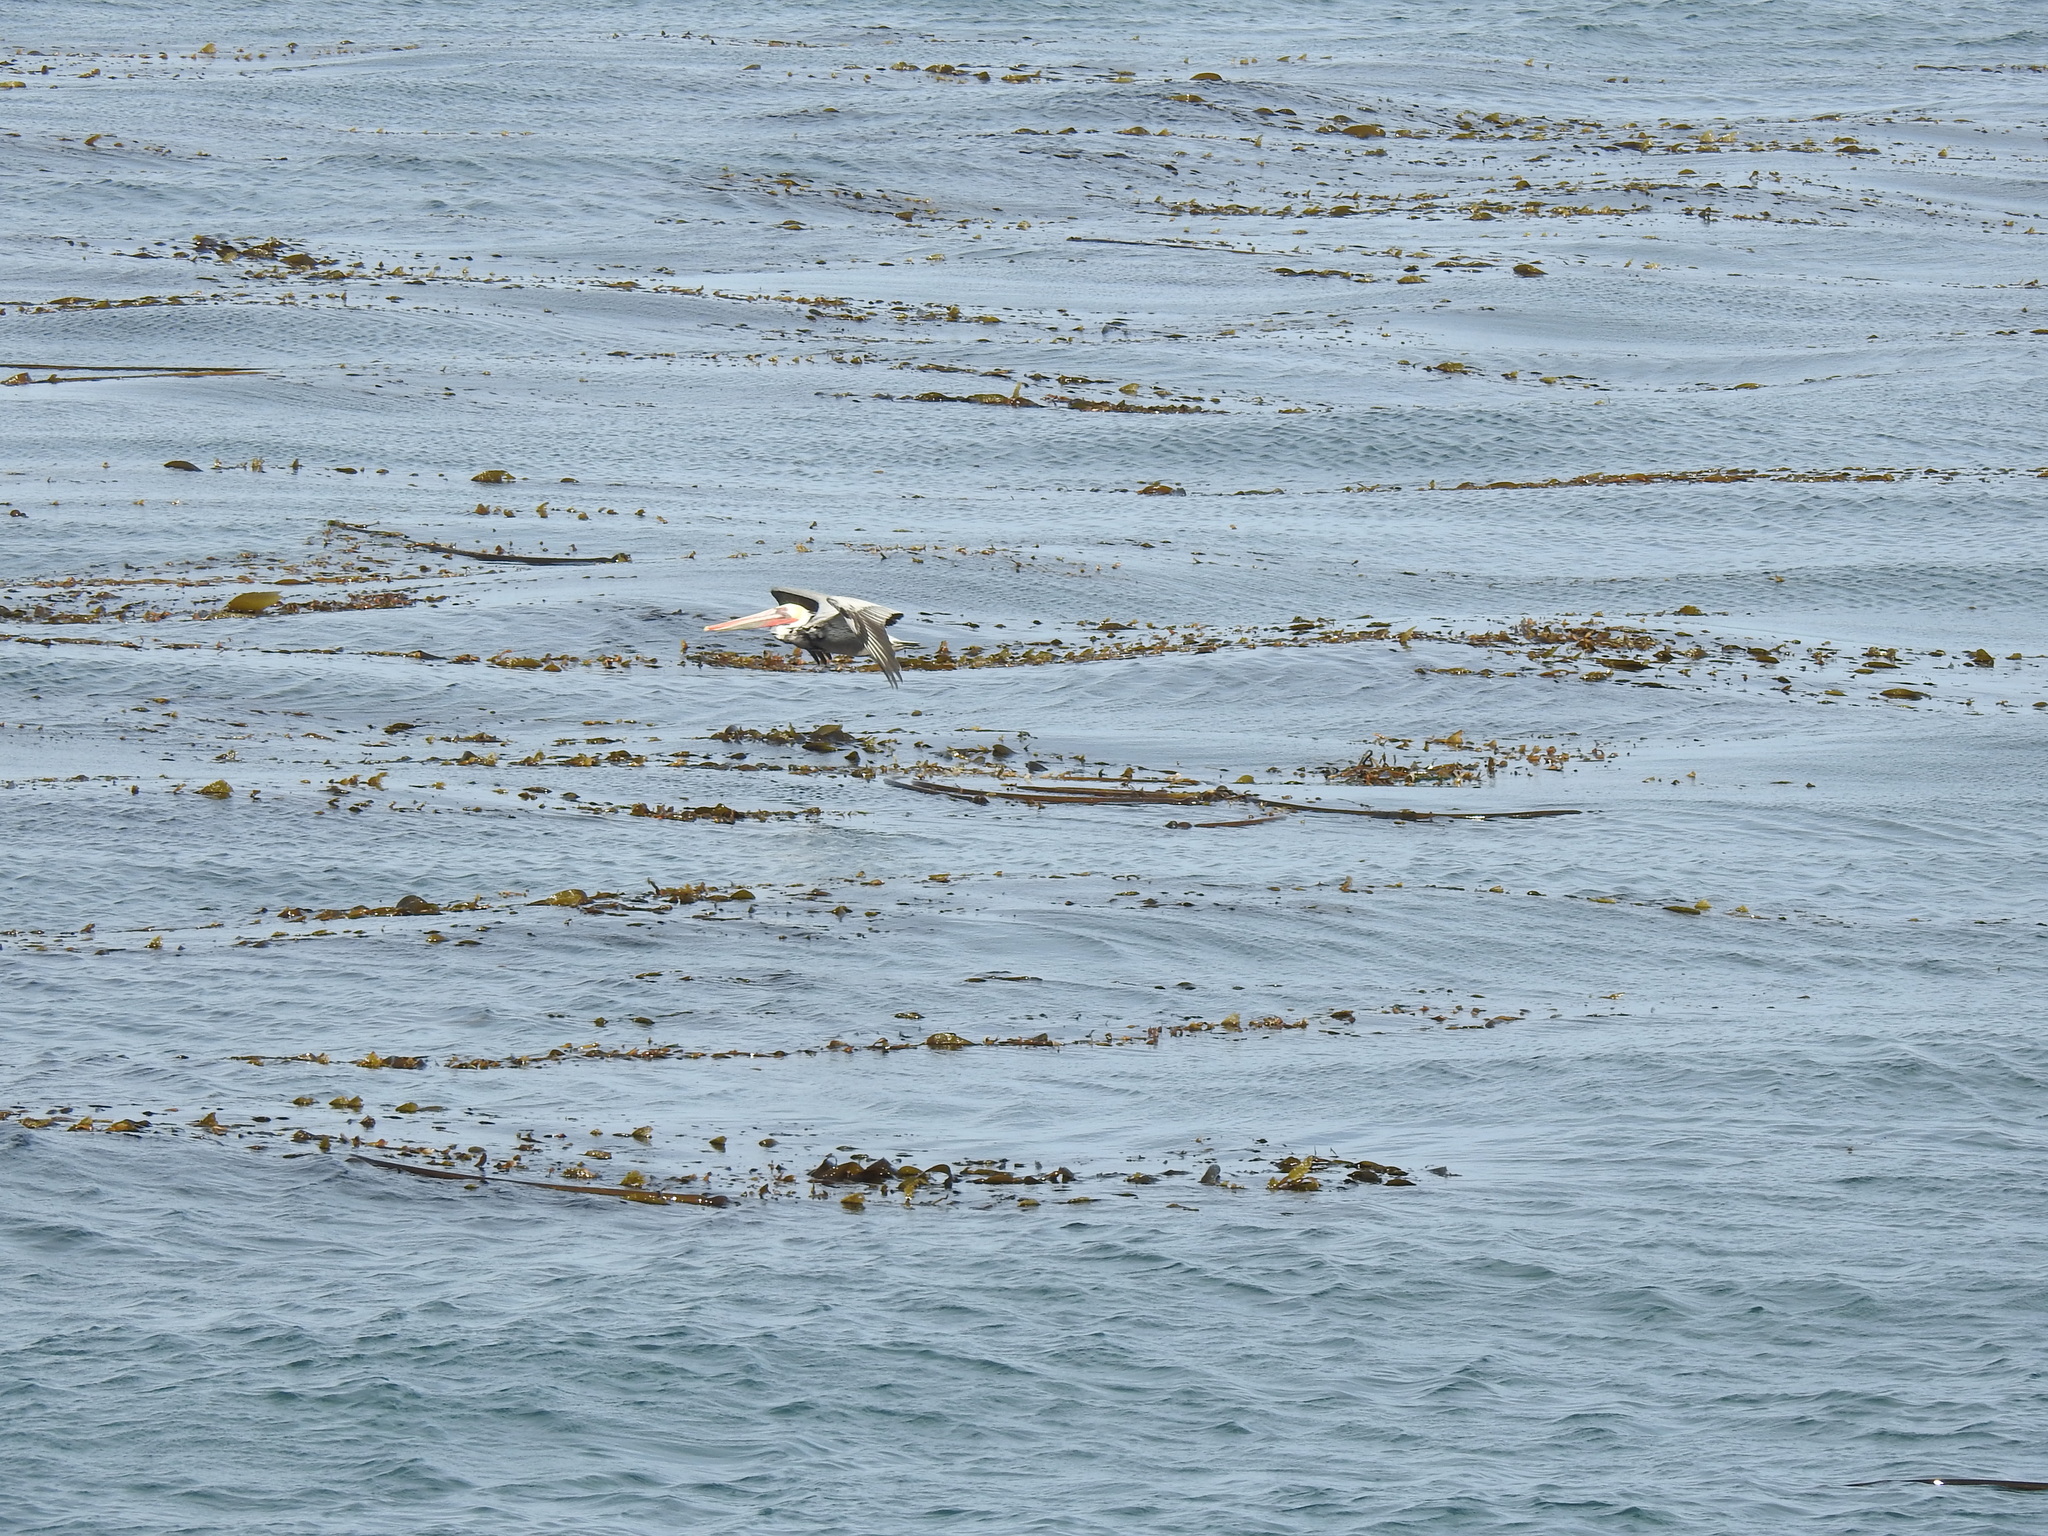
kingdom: Animalia
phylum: Chordata
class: Aves
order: Pelecaniformes
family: Pelecanidae
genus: Pelecanus
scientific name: Pelecanus occidentalis
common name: Brown pelican
